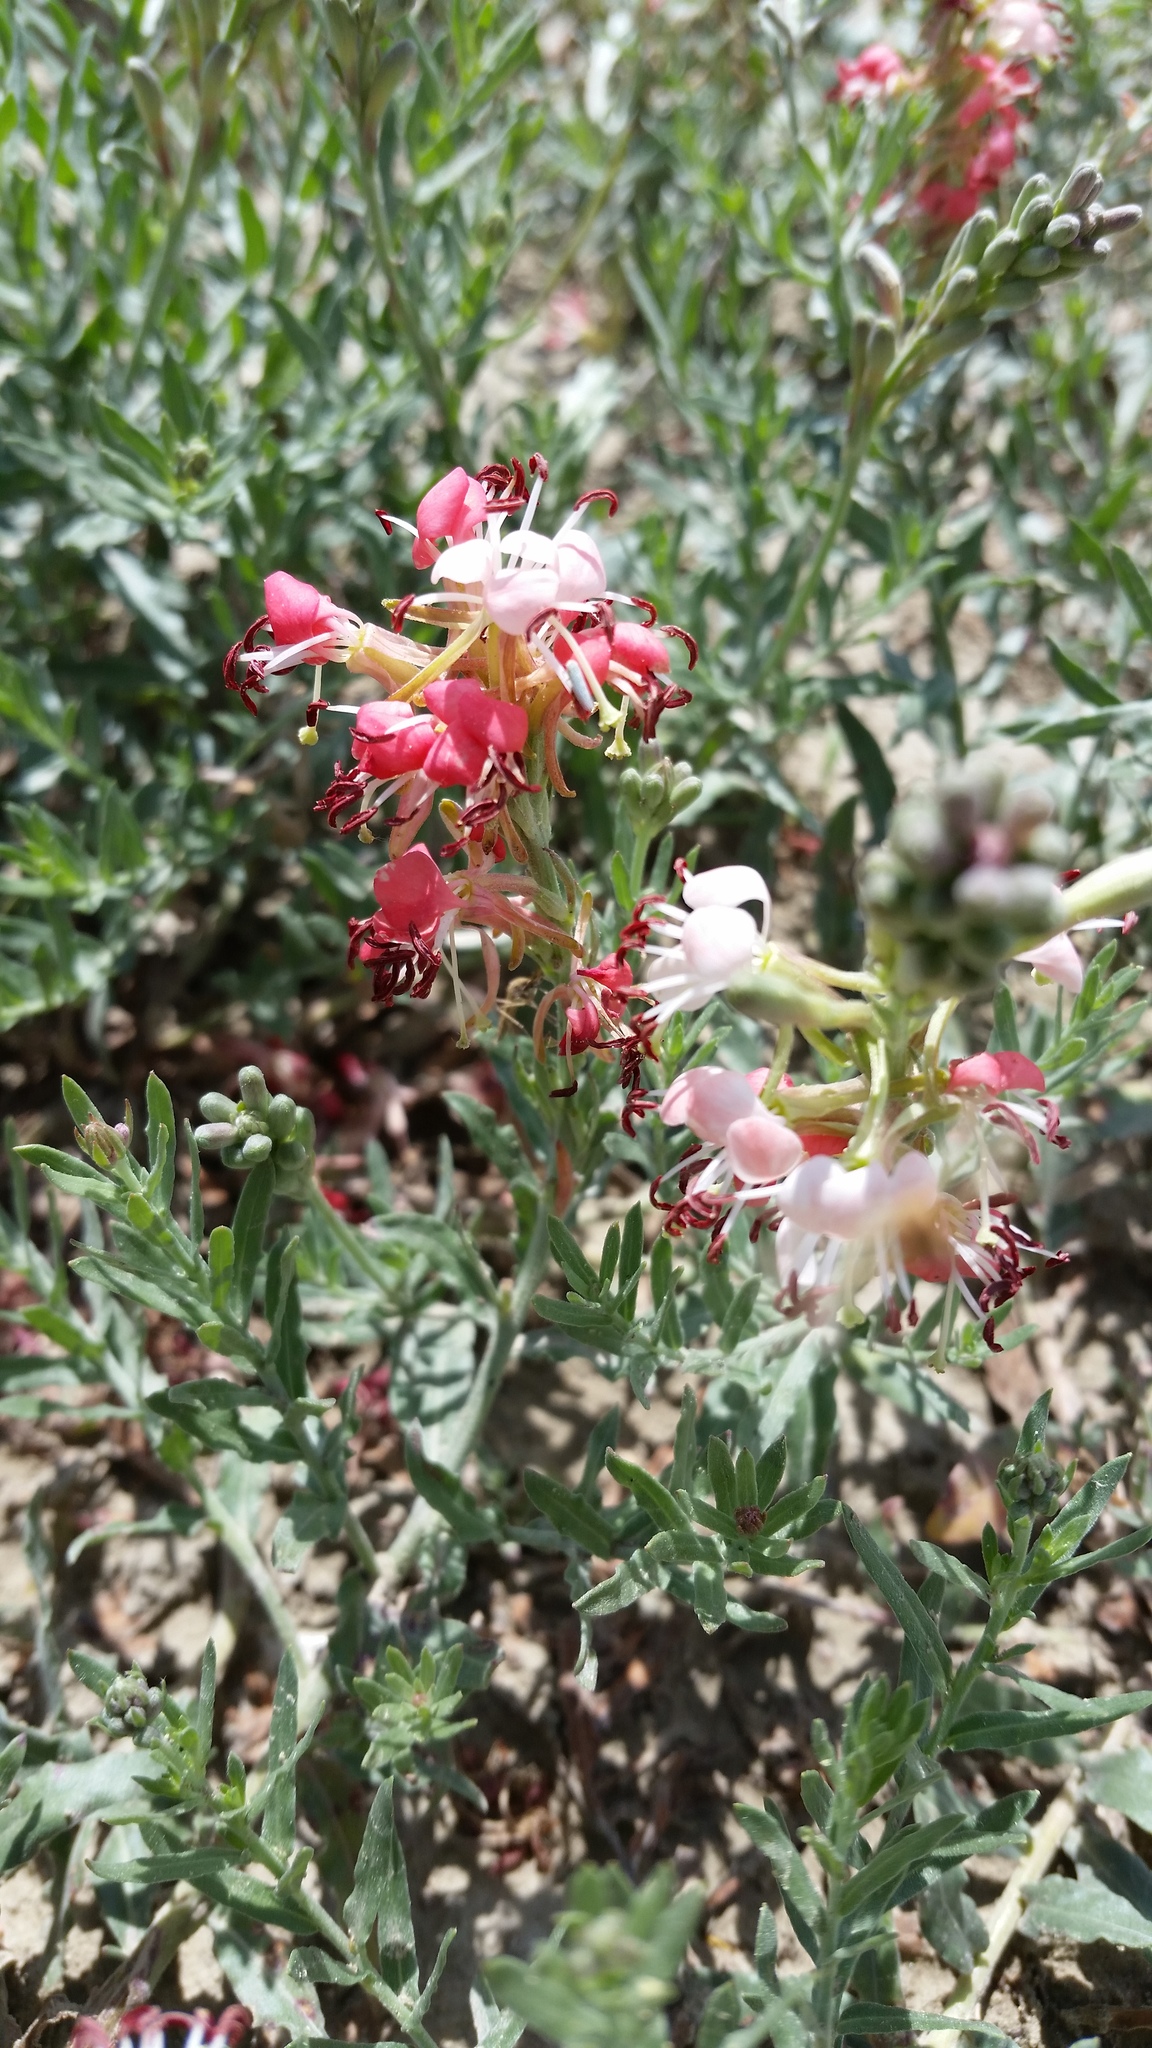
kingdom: Plantae
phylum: Tracheophyta
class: Magnoliopsida
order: Myrtales
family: Onagraceae
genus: Oenothera
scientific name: Oenothera suffrutescens
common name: Scarlet beeblossom
